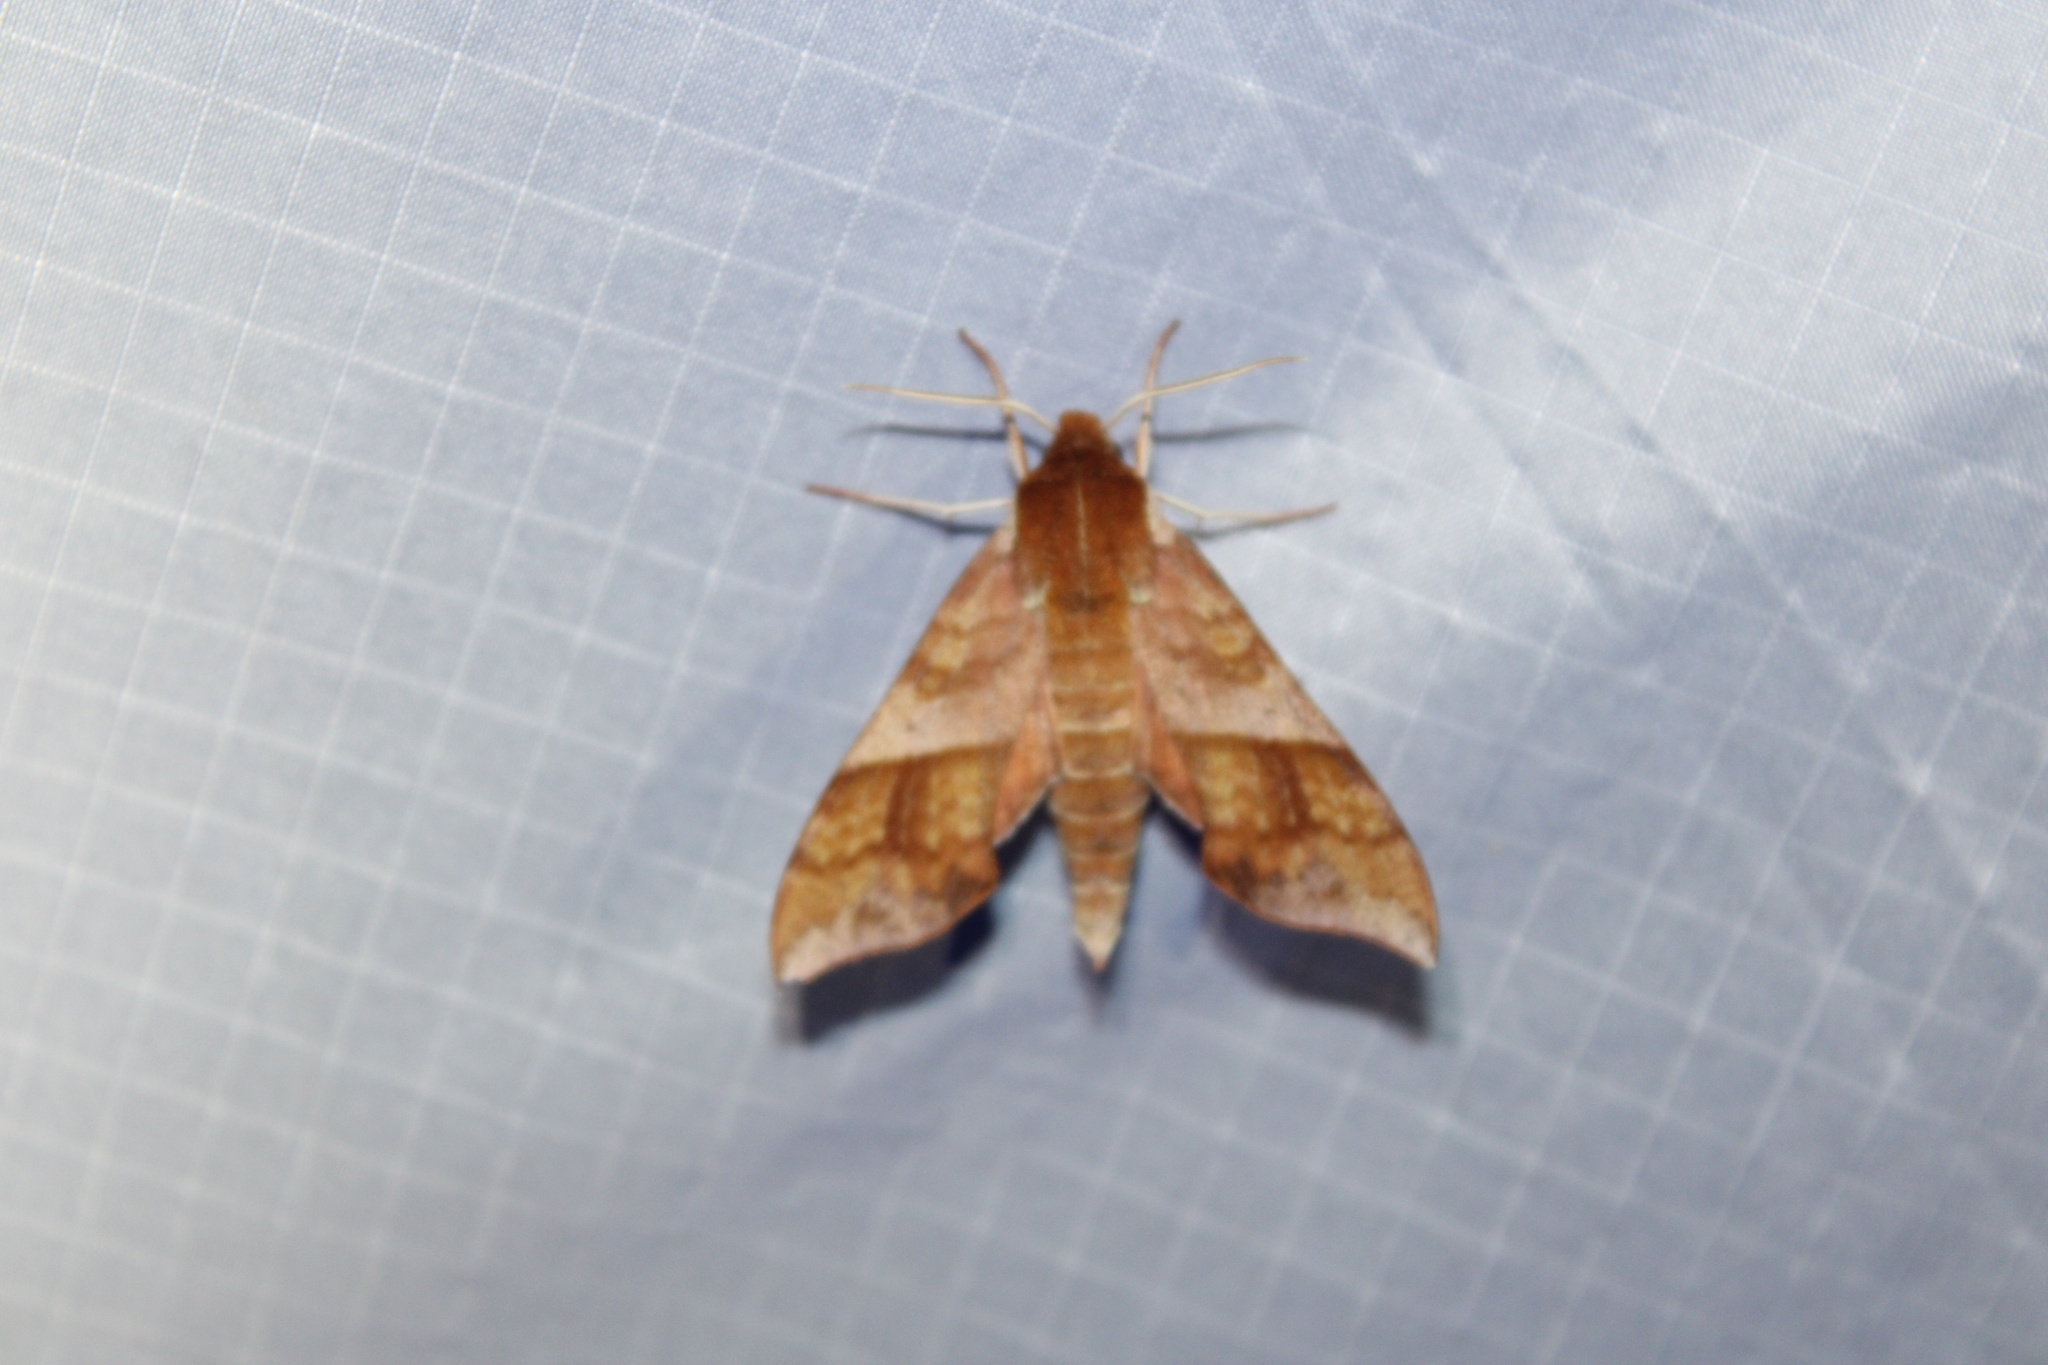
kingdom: Animalia
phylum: Arthropoda
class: Insecta
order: Lepidoptera
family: Sphingidae
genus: Darapsa
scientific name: Darapsa choerilus
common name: Azalea sphinx
